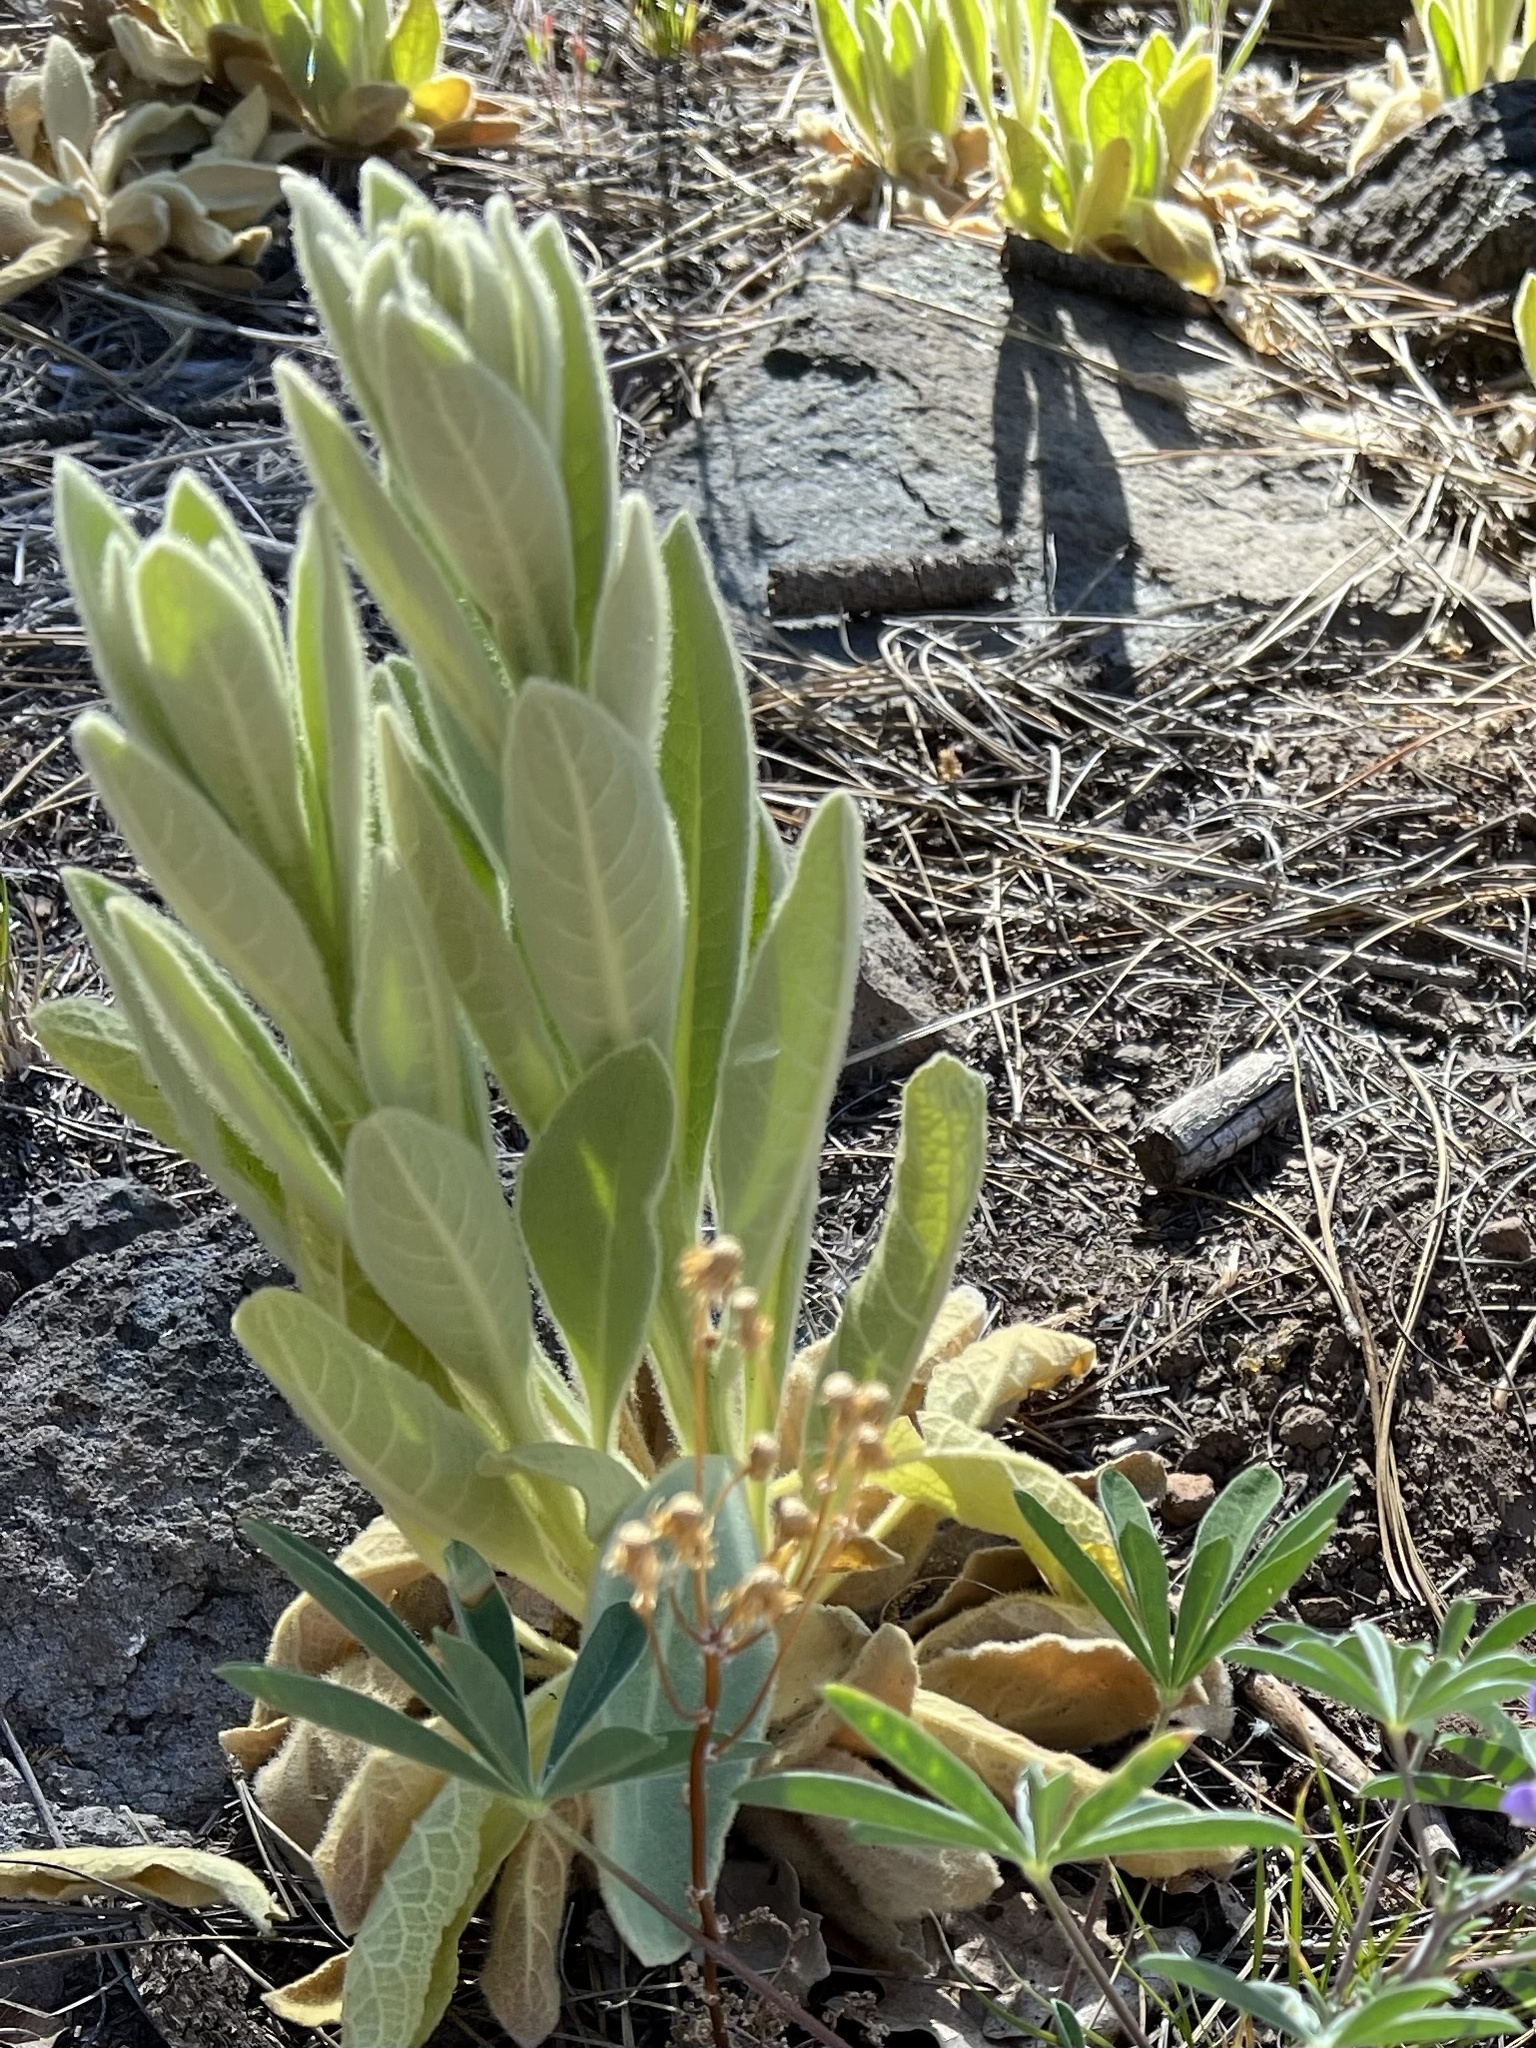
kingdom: Plantae
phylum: Tracheophyta
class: Magnoliopsida
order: Lamiales
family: Scrophulariaceae
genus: Verbascum
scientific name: Verbascum thapsus
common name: Common mullein
